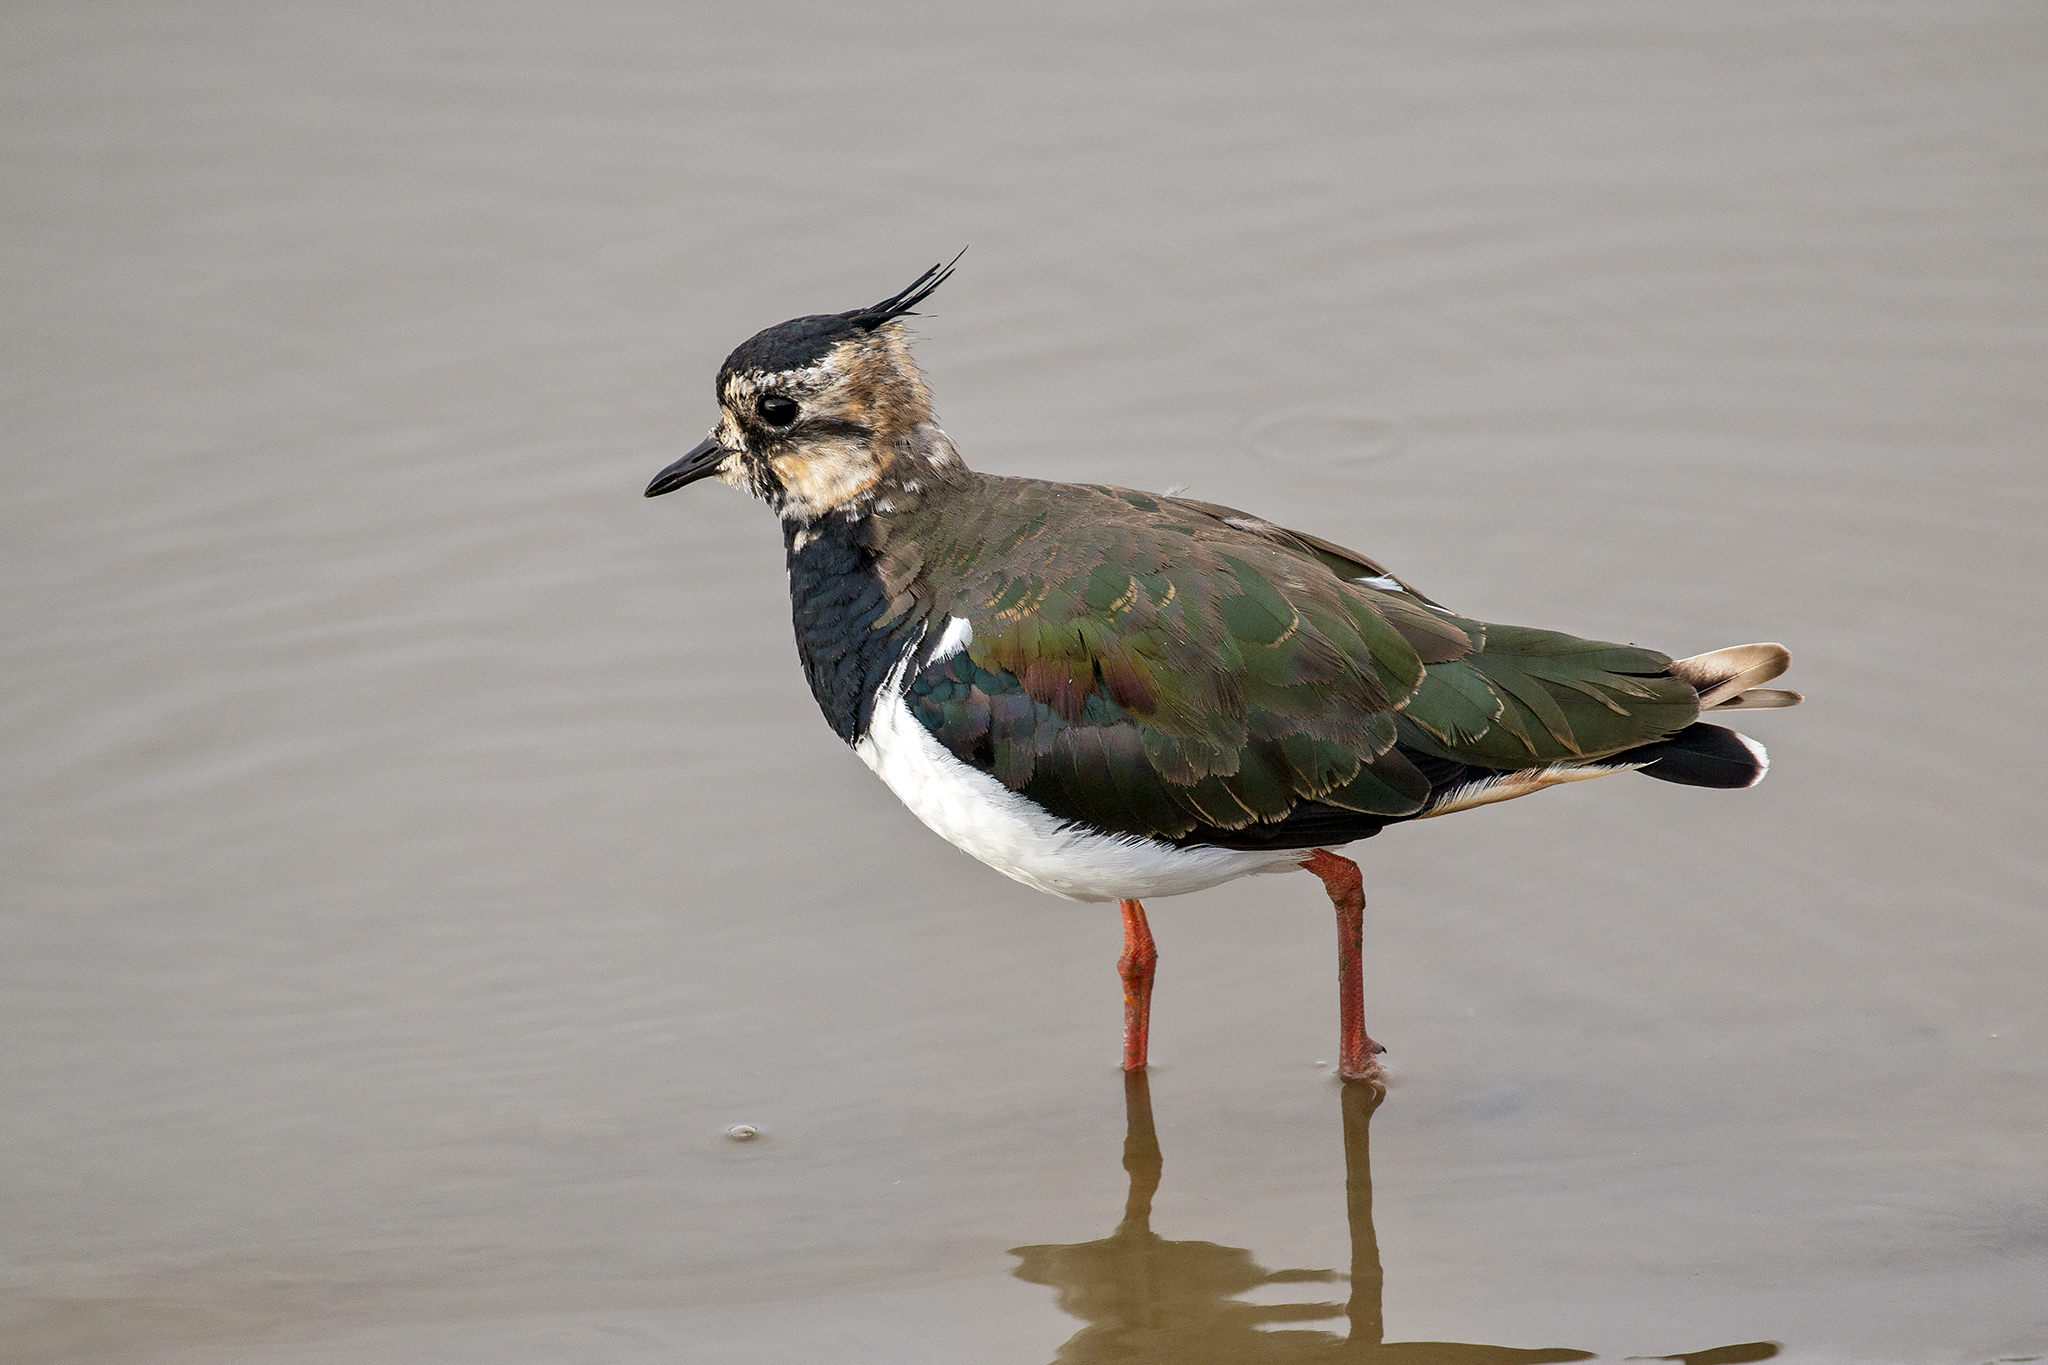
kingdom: Animalia
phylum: Chordata
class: Aves
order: Charadriiformes
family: Charadriidae
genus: Vanellus
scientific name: Vanellus vanellus
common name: Northern lapwing
